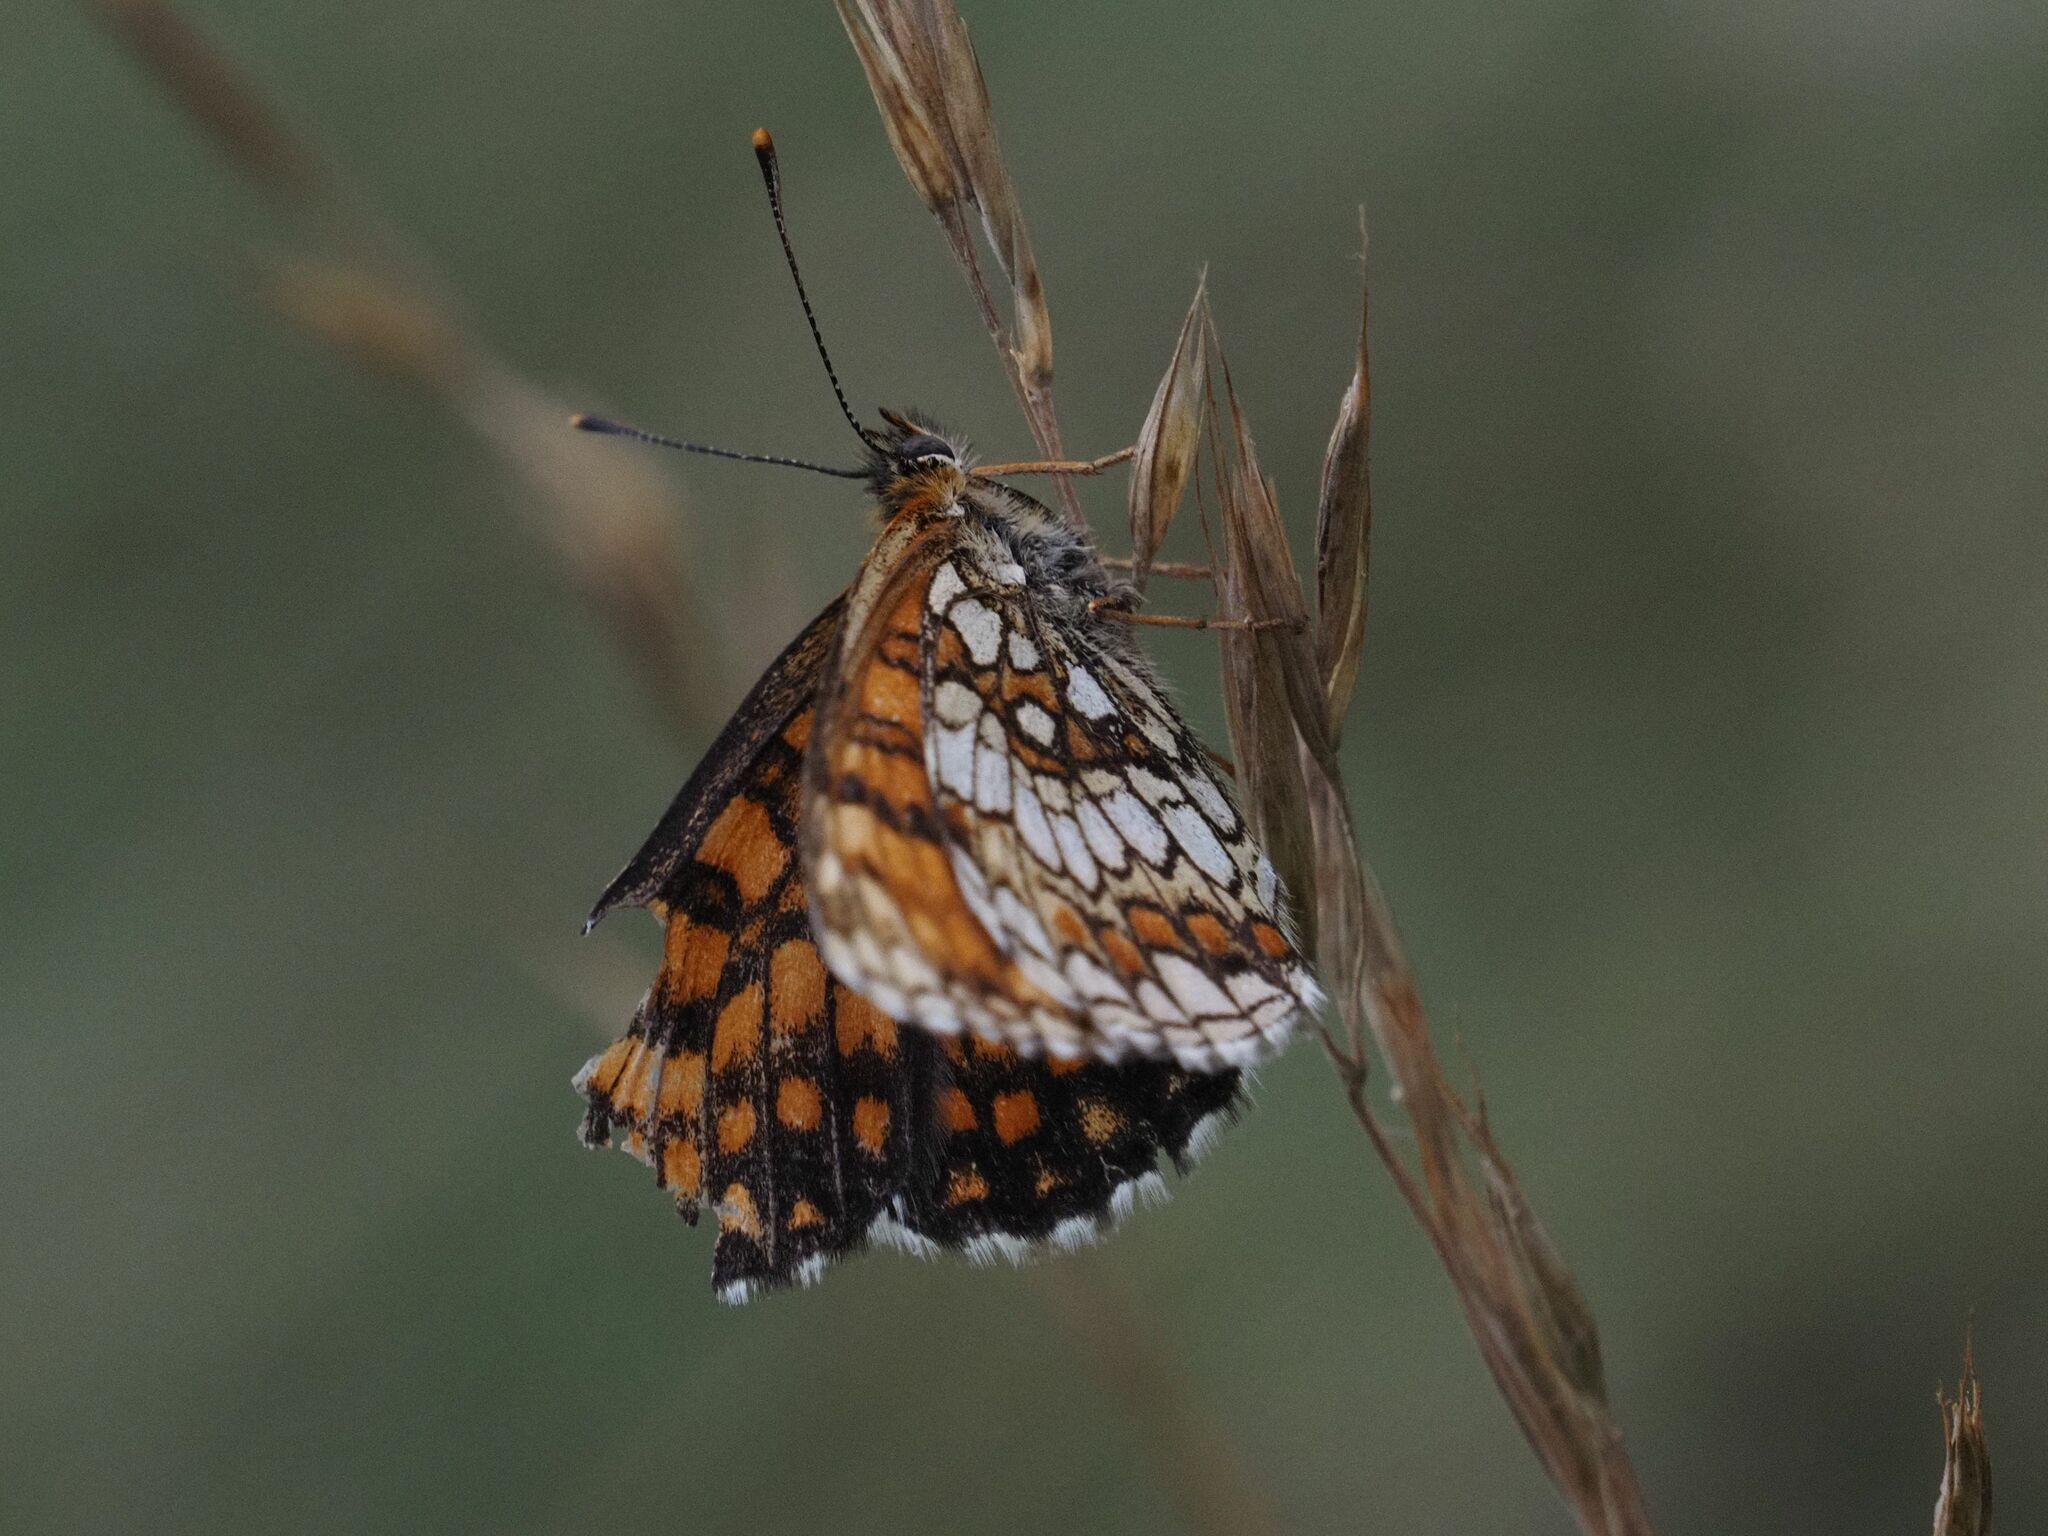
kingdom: Animalia
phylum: Arthropoda
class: Insecta
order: Lepidoptera
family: Nymphalidae
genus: Melitaea
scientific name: Melitaea athalia
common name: Heath fritillary
